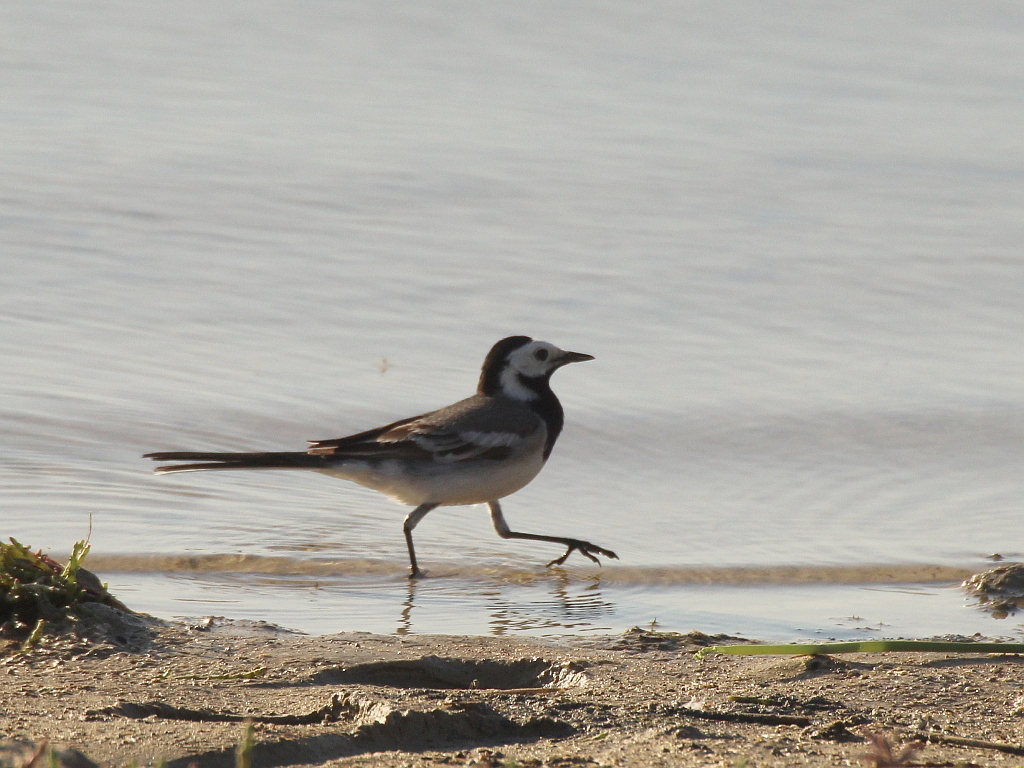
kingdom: Animalia
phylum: Chordata
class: Aves
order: Passeriformes
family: Motacillidae
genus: Motacilla
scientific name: Motacilla alba
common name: White wagtail
